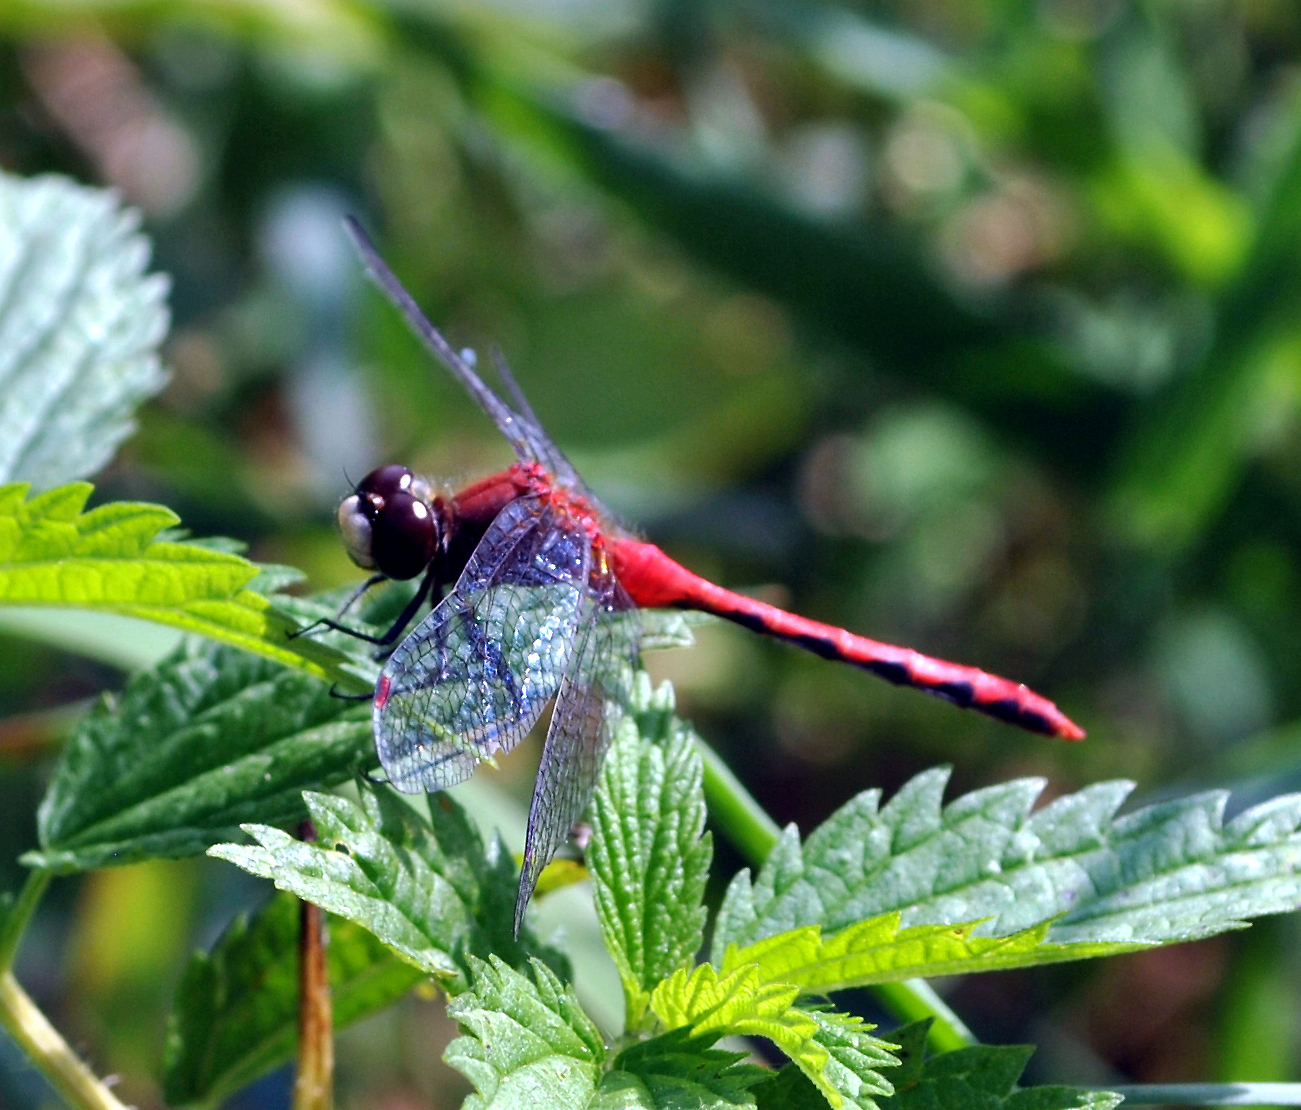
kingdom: Animalia
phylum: Arthropoda
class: Insecta
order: Odonata
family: Libellulidae
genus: Sympetrum
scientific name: Sympetrum obtrusum
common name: White-faced meadowhawk
